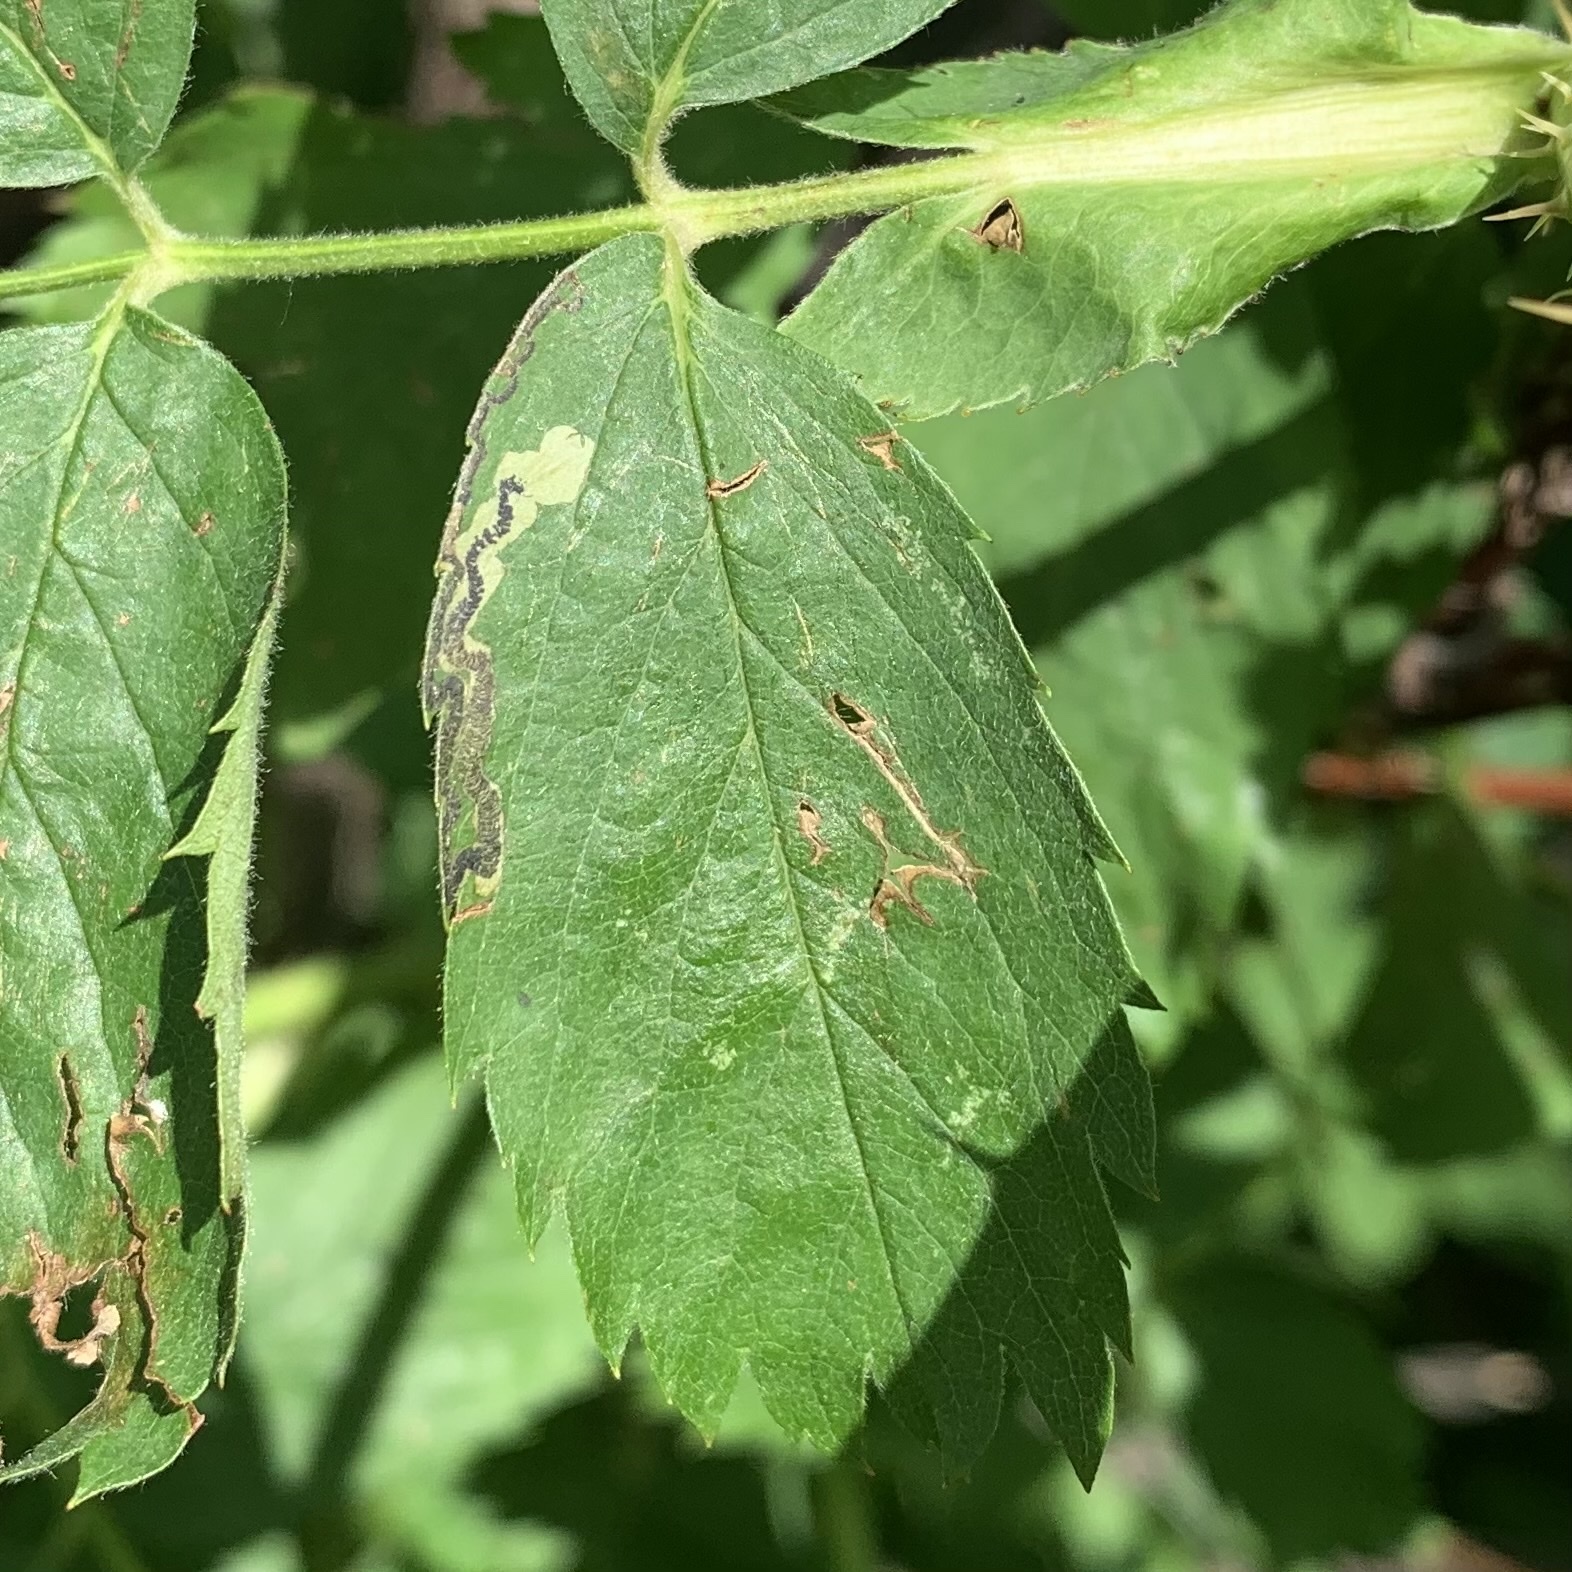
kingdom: Animalia
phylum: Arthropoda
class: Insecta
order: Lepidoptera
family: Nepticulidae
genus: Stigmella
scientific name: Stigmella rosaefoliella
